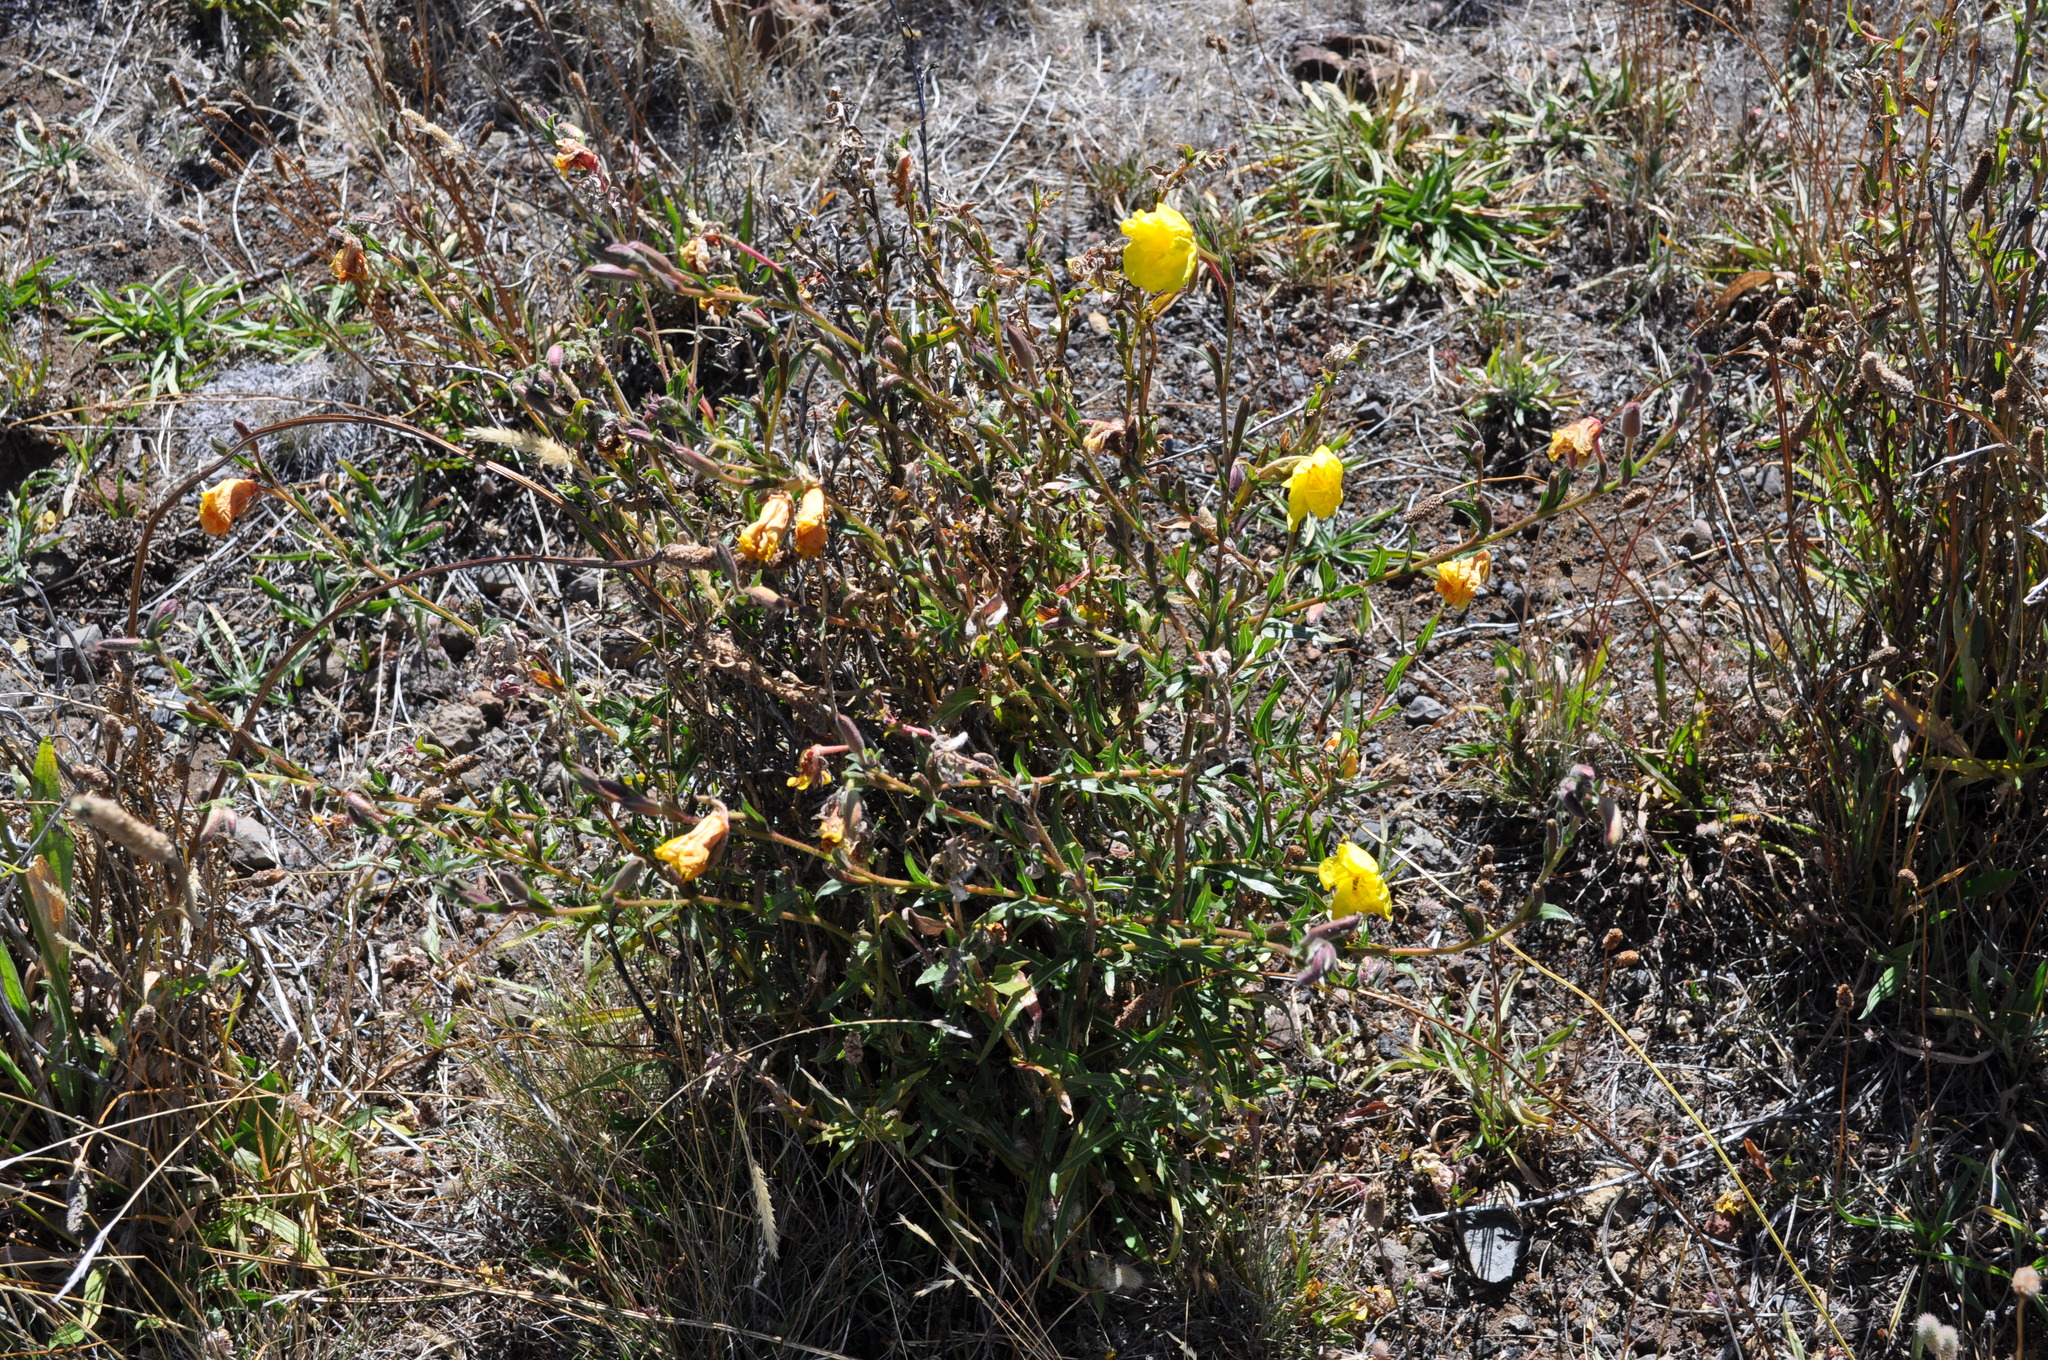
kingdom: Plantae
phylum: Tracheophyta
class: Magnoliopsida
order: Myrtales
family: Onagraceae
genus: Oenothera
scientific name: Oenothera stricta
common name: Fragrant evening-primrose
